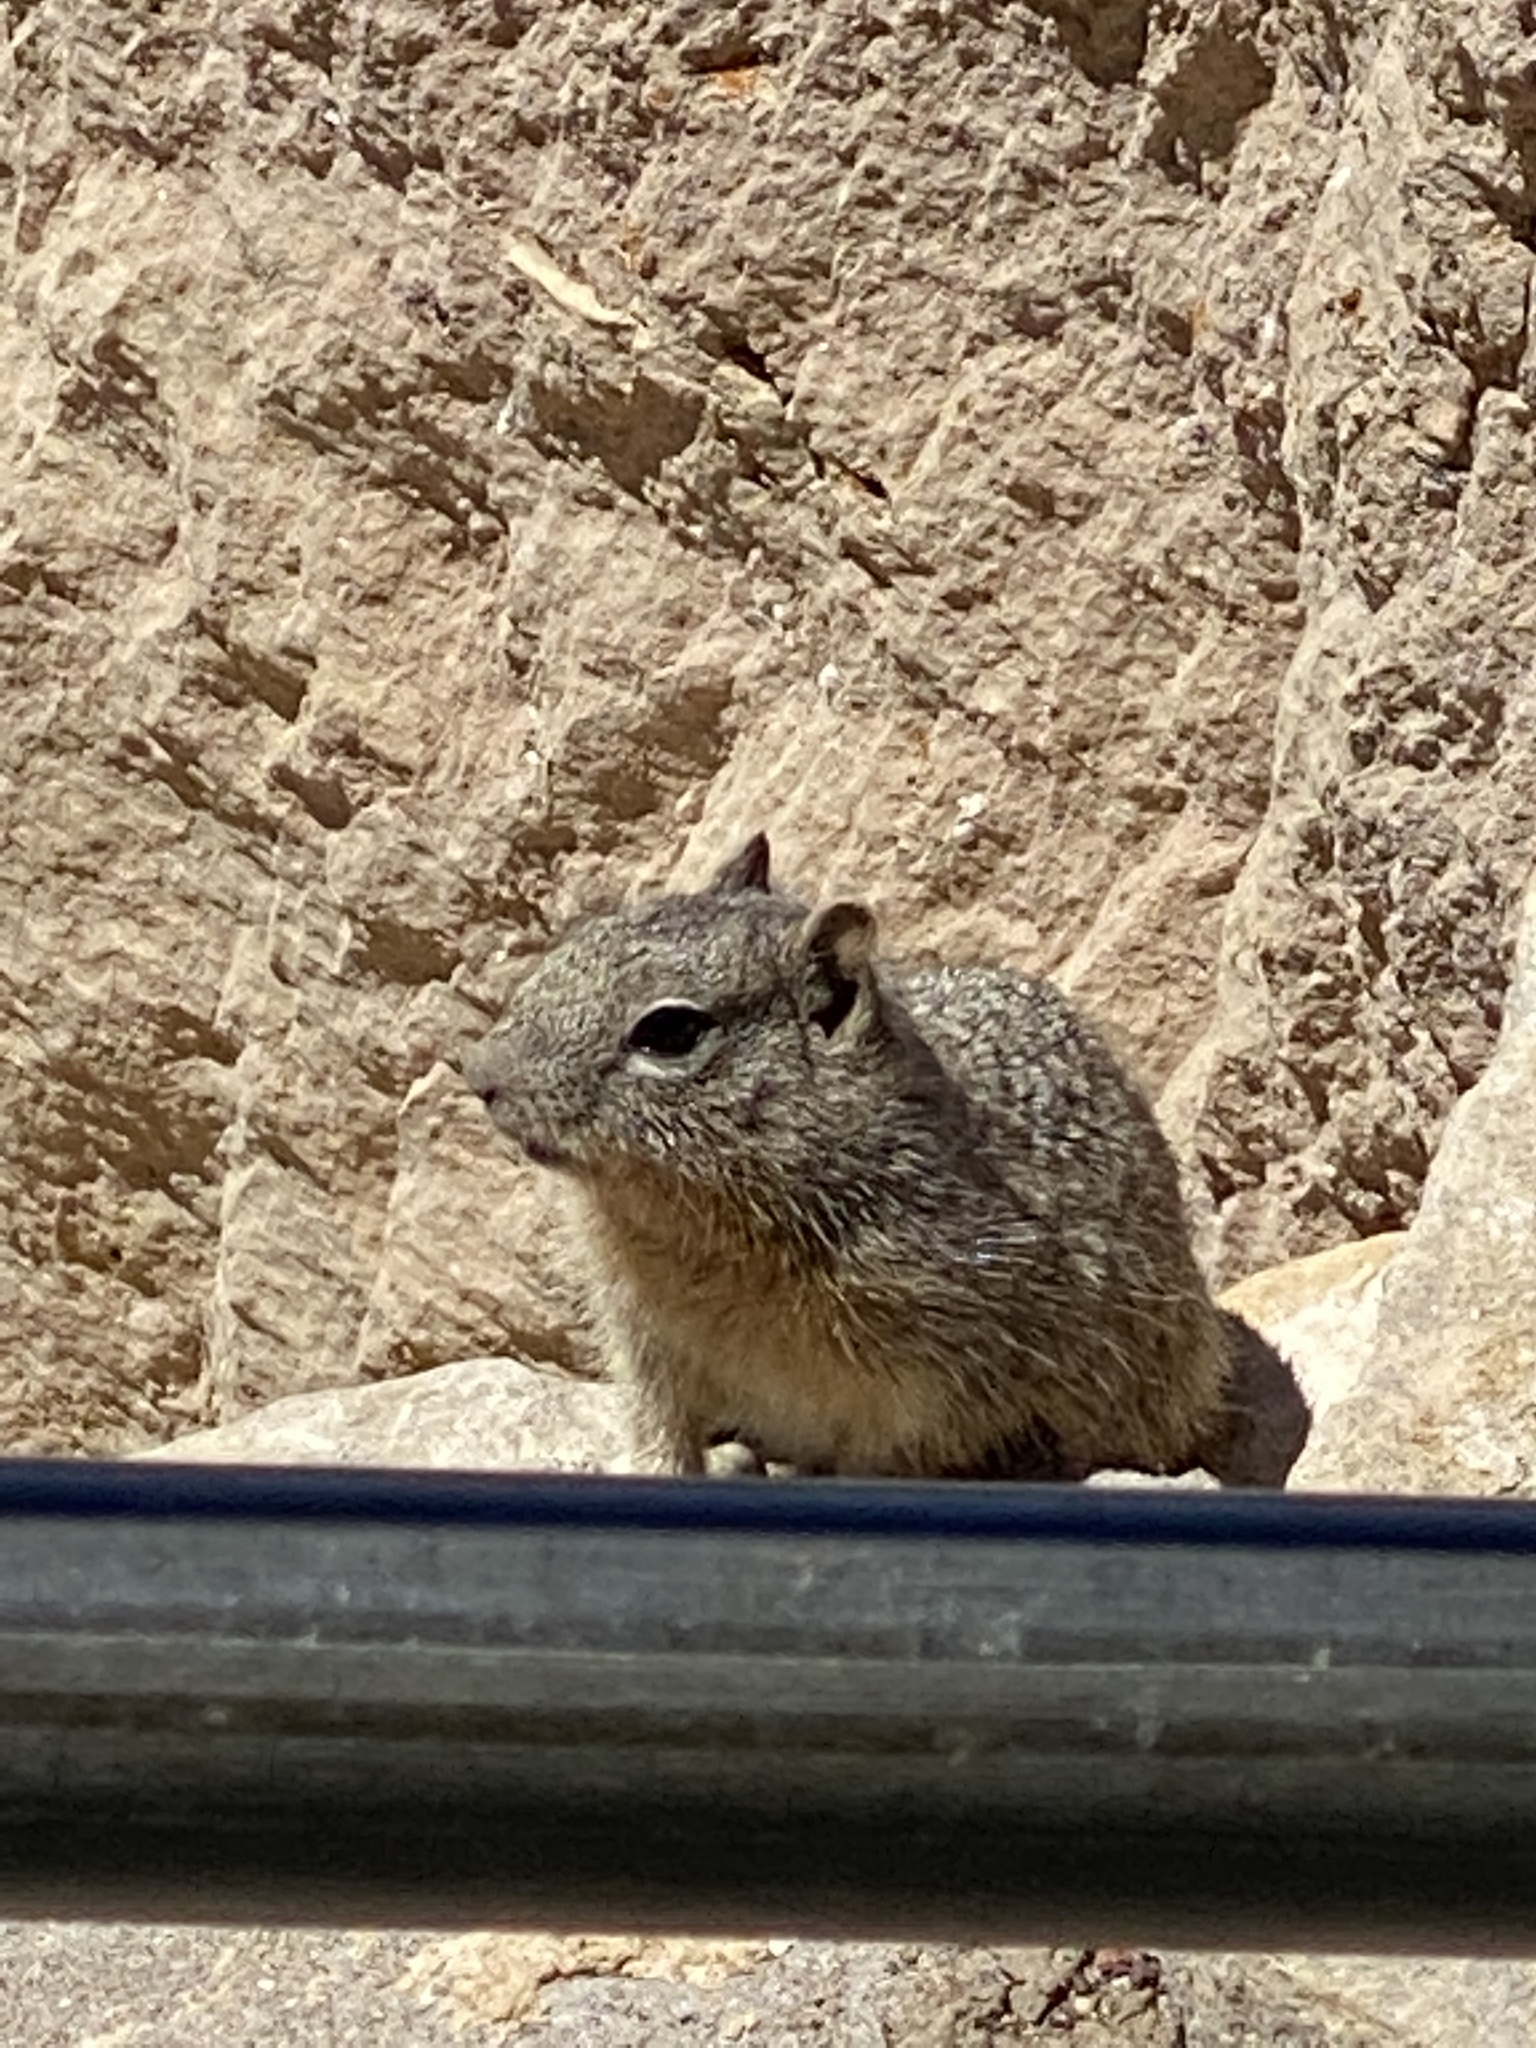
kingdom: Animalia
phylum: Chordata
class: Mammalia
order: Rodentia
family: Sciuridae
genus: Otospermophilus
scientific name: Otospermophilus variegatus
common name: Rock squirrel
